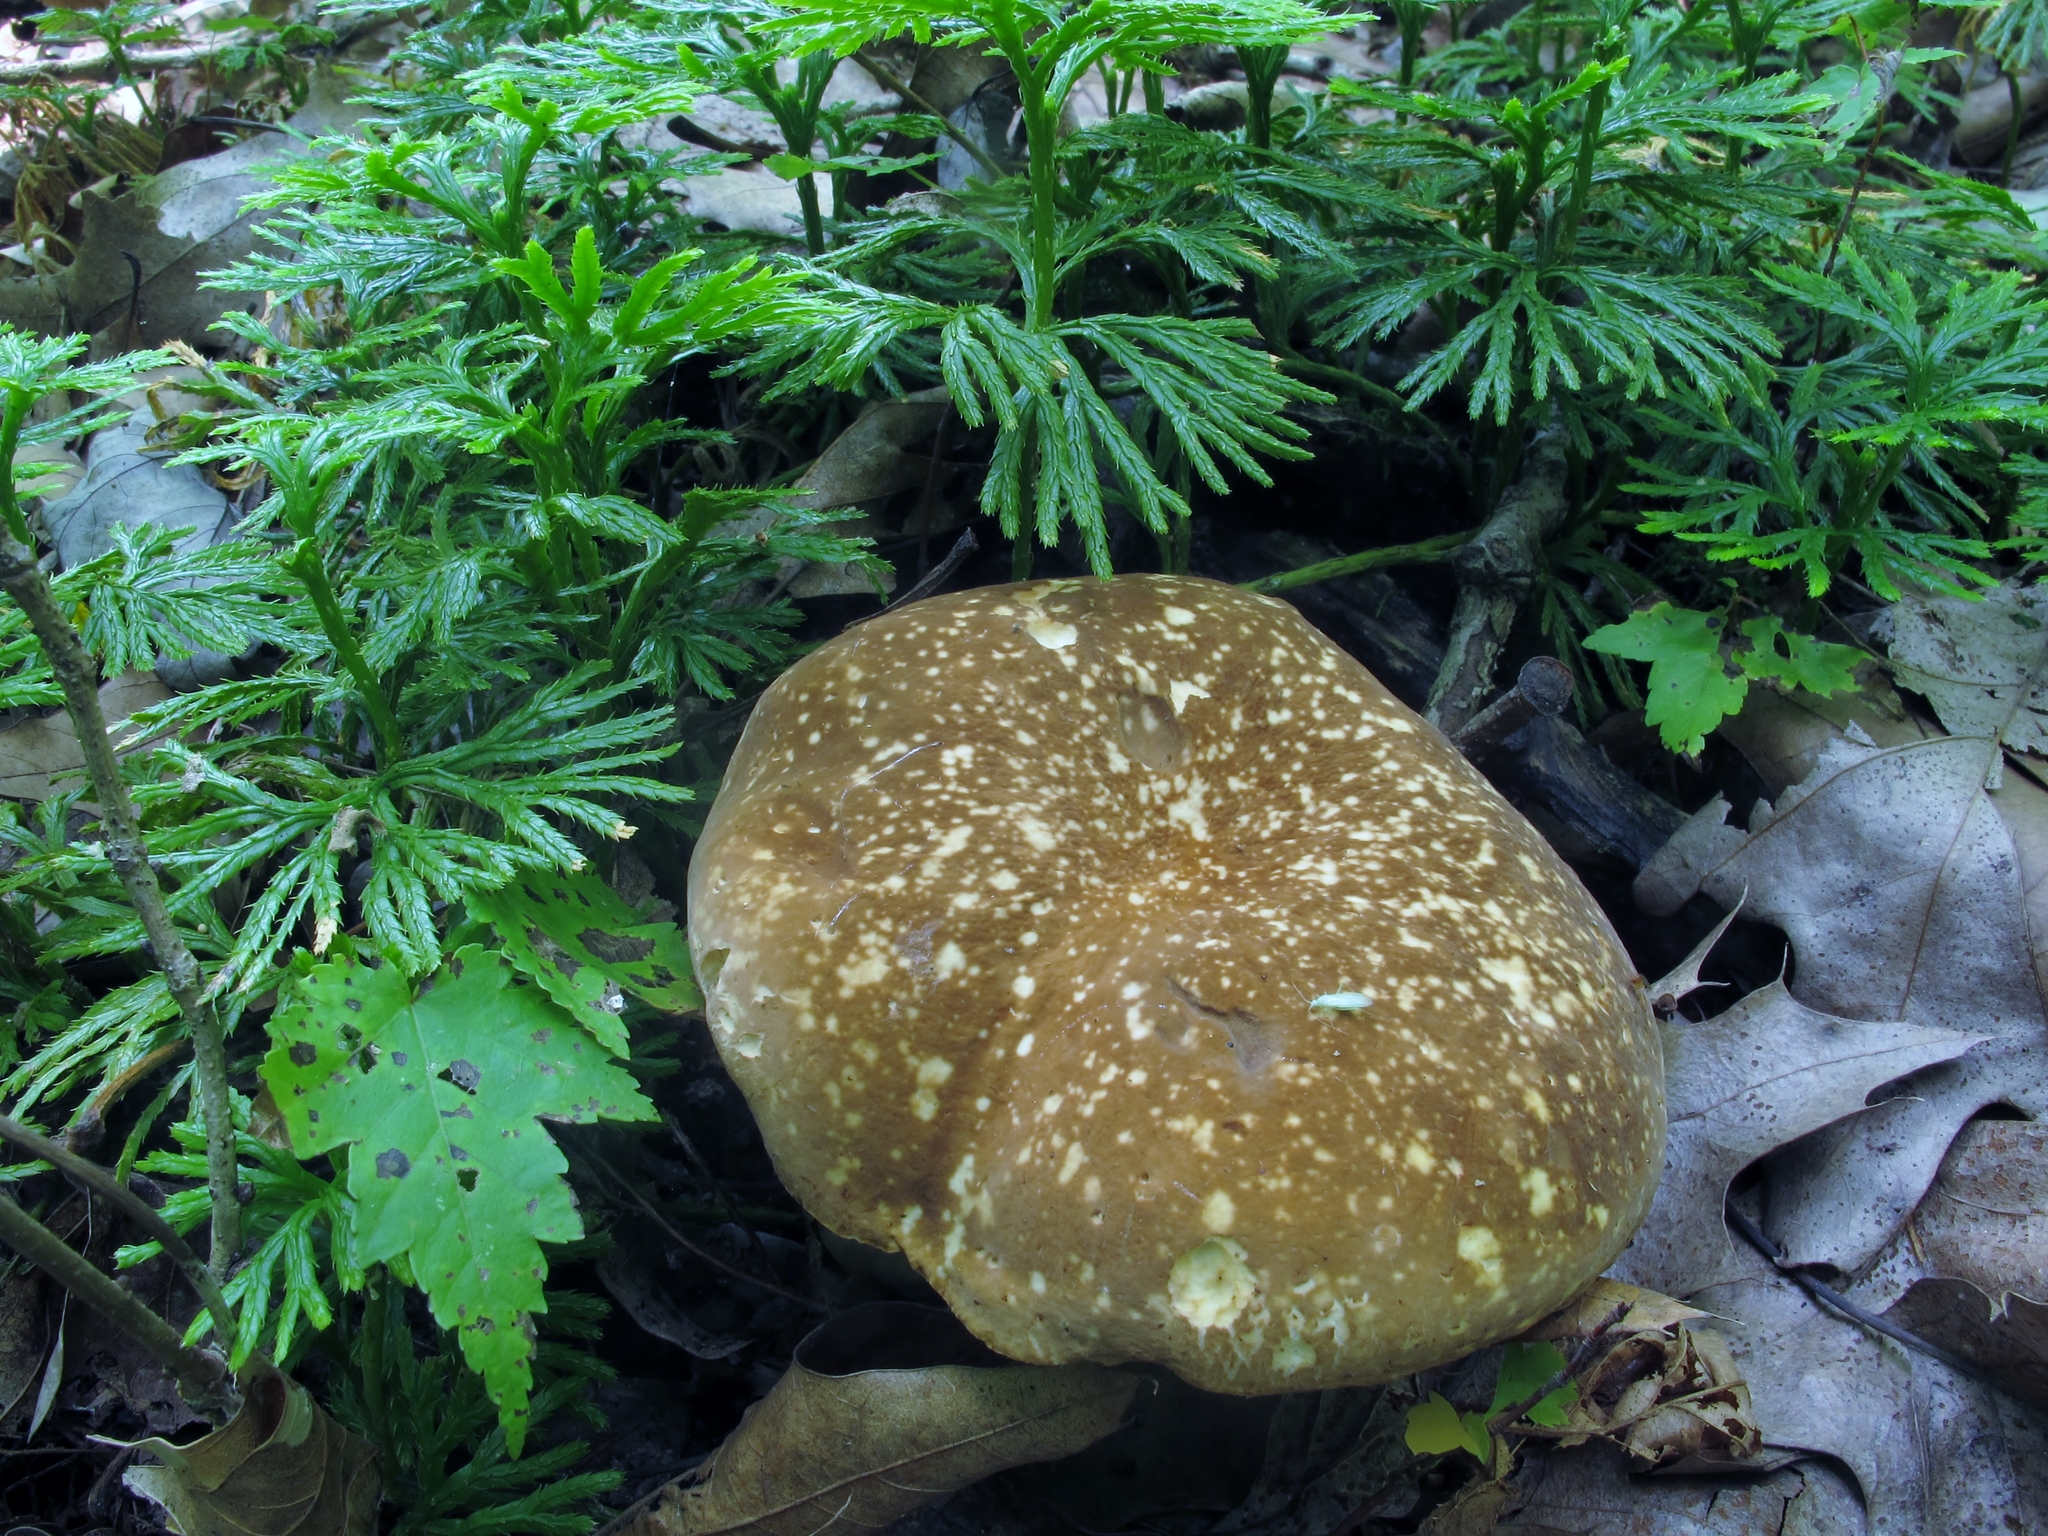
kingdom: Fungi
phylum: Basidiomycota
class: Agaricomycetes
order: Boletales
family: Boletaceae
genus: Xanthoconium
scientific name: Xanthoconium affine
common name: Spotted bolete
